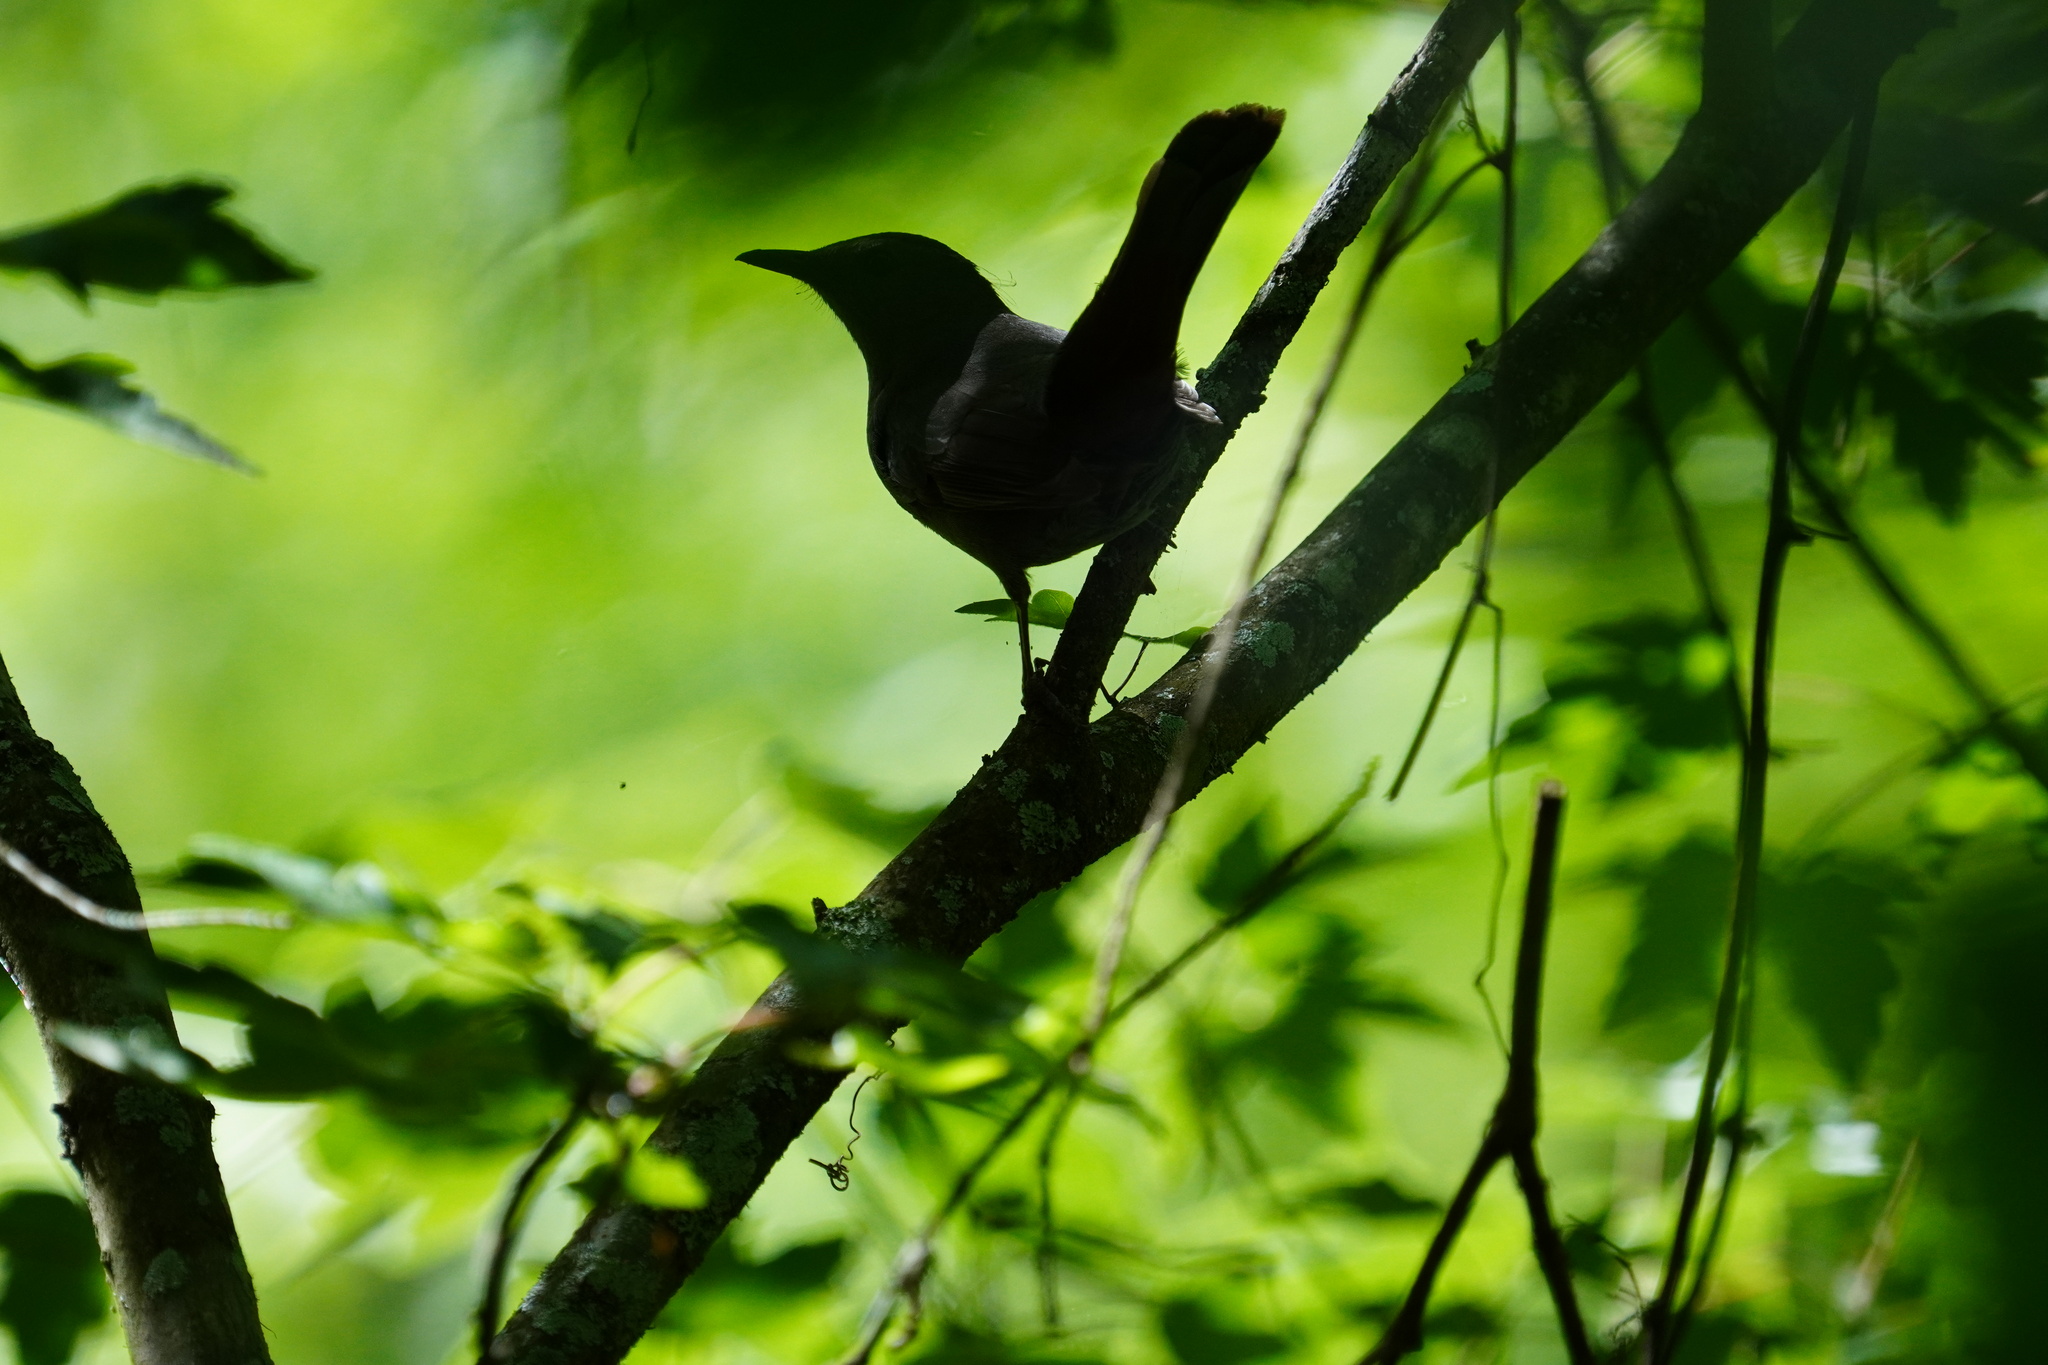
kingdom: Animalia
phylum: Chordata
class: Aves
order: Passeriformes
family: Mimidae
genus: Dumetella
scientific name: Dumetella carolinensis
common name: Gray catbird
